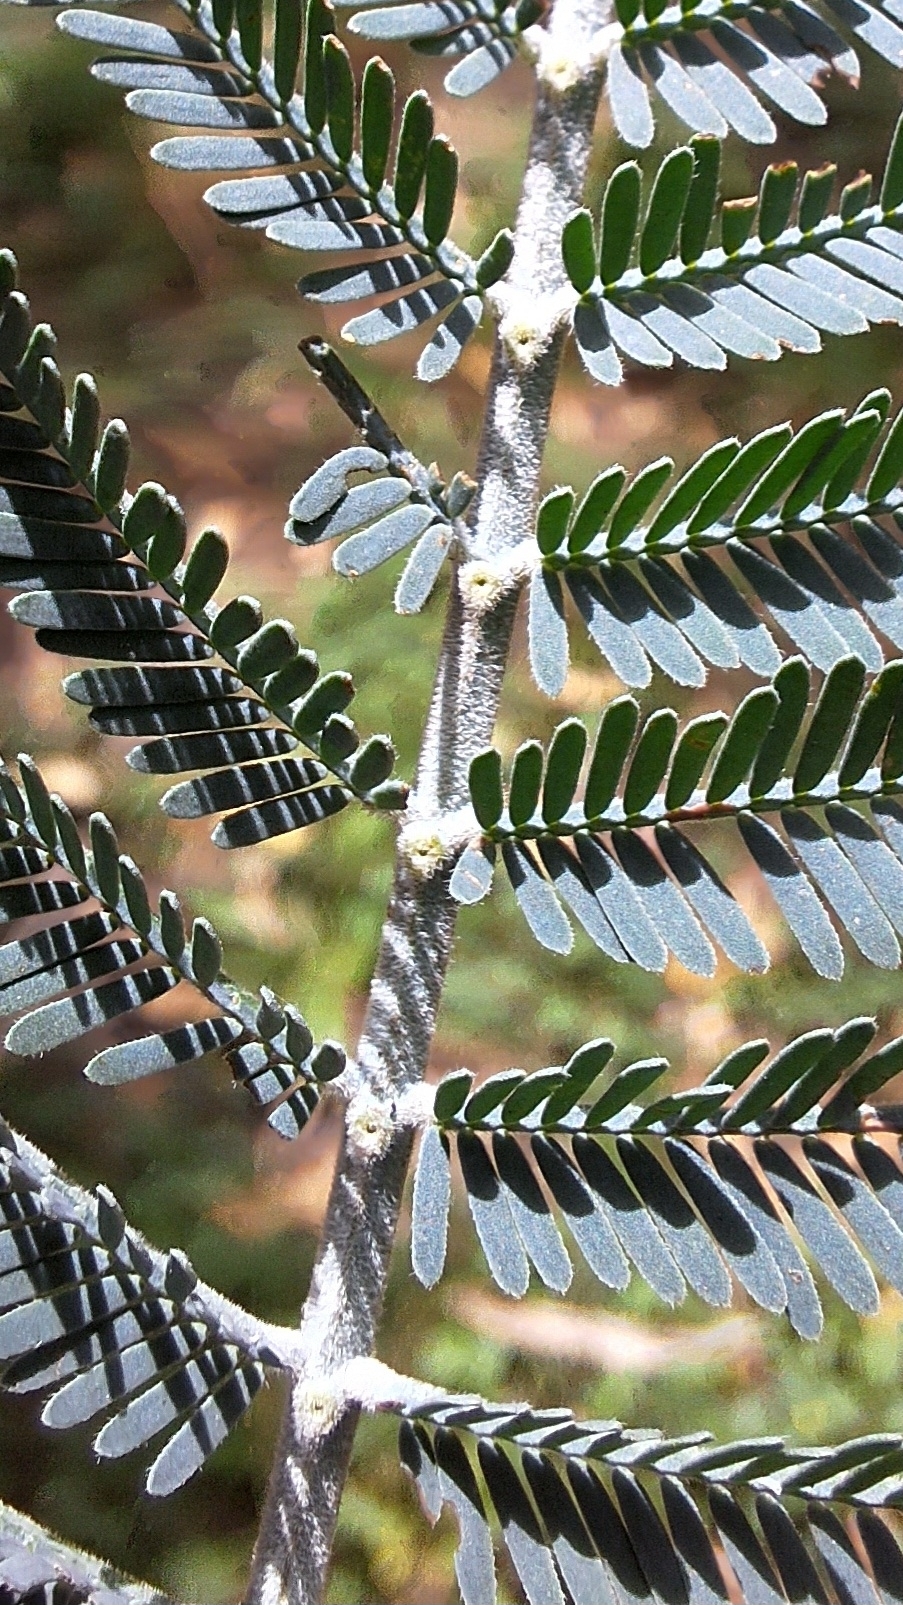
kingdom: Plantae
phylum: Tracheophyta
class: Magnoliopsida
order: Fabales
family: Fabaceae
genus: Acacia
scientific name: Acacia dealbata
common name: Silver wattle
